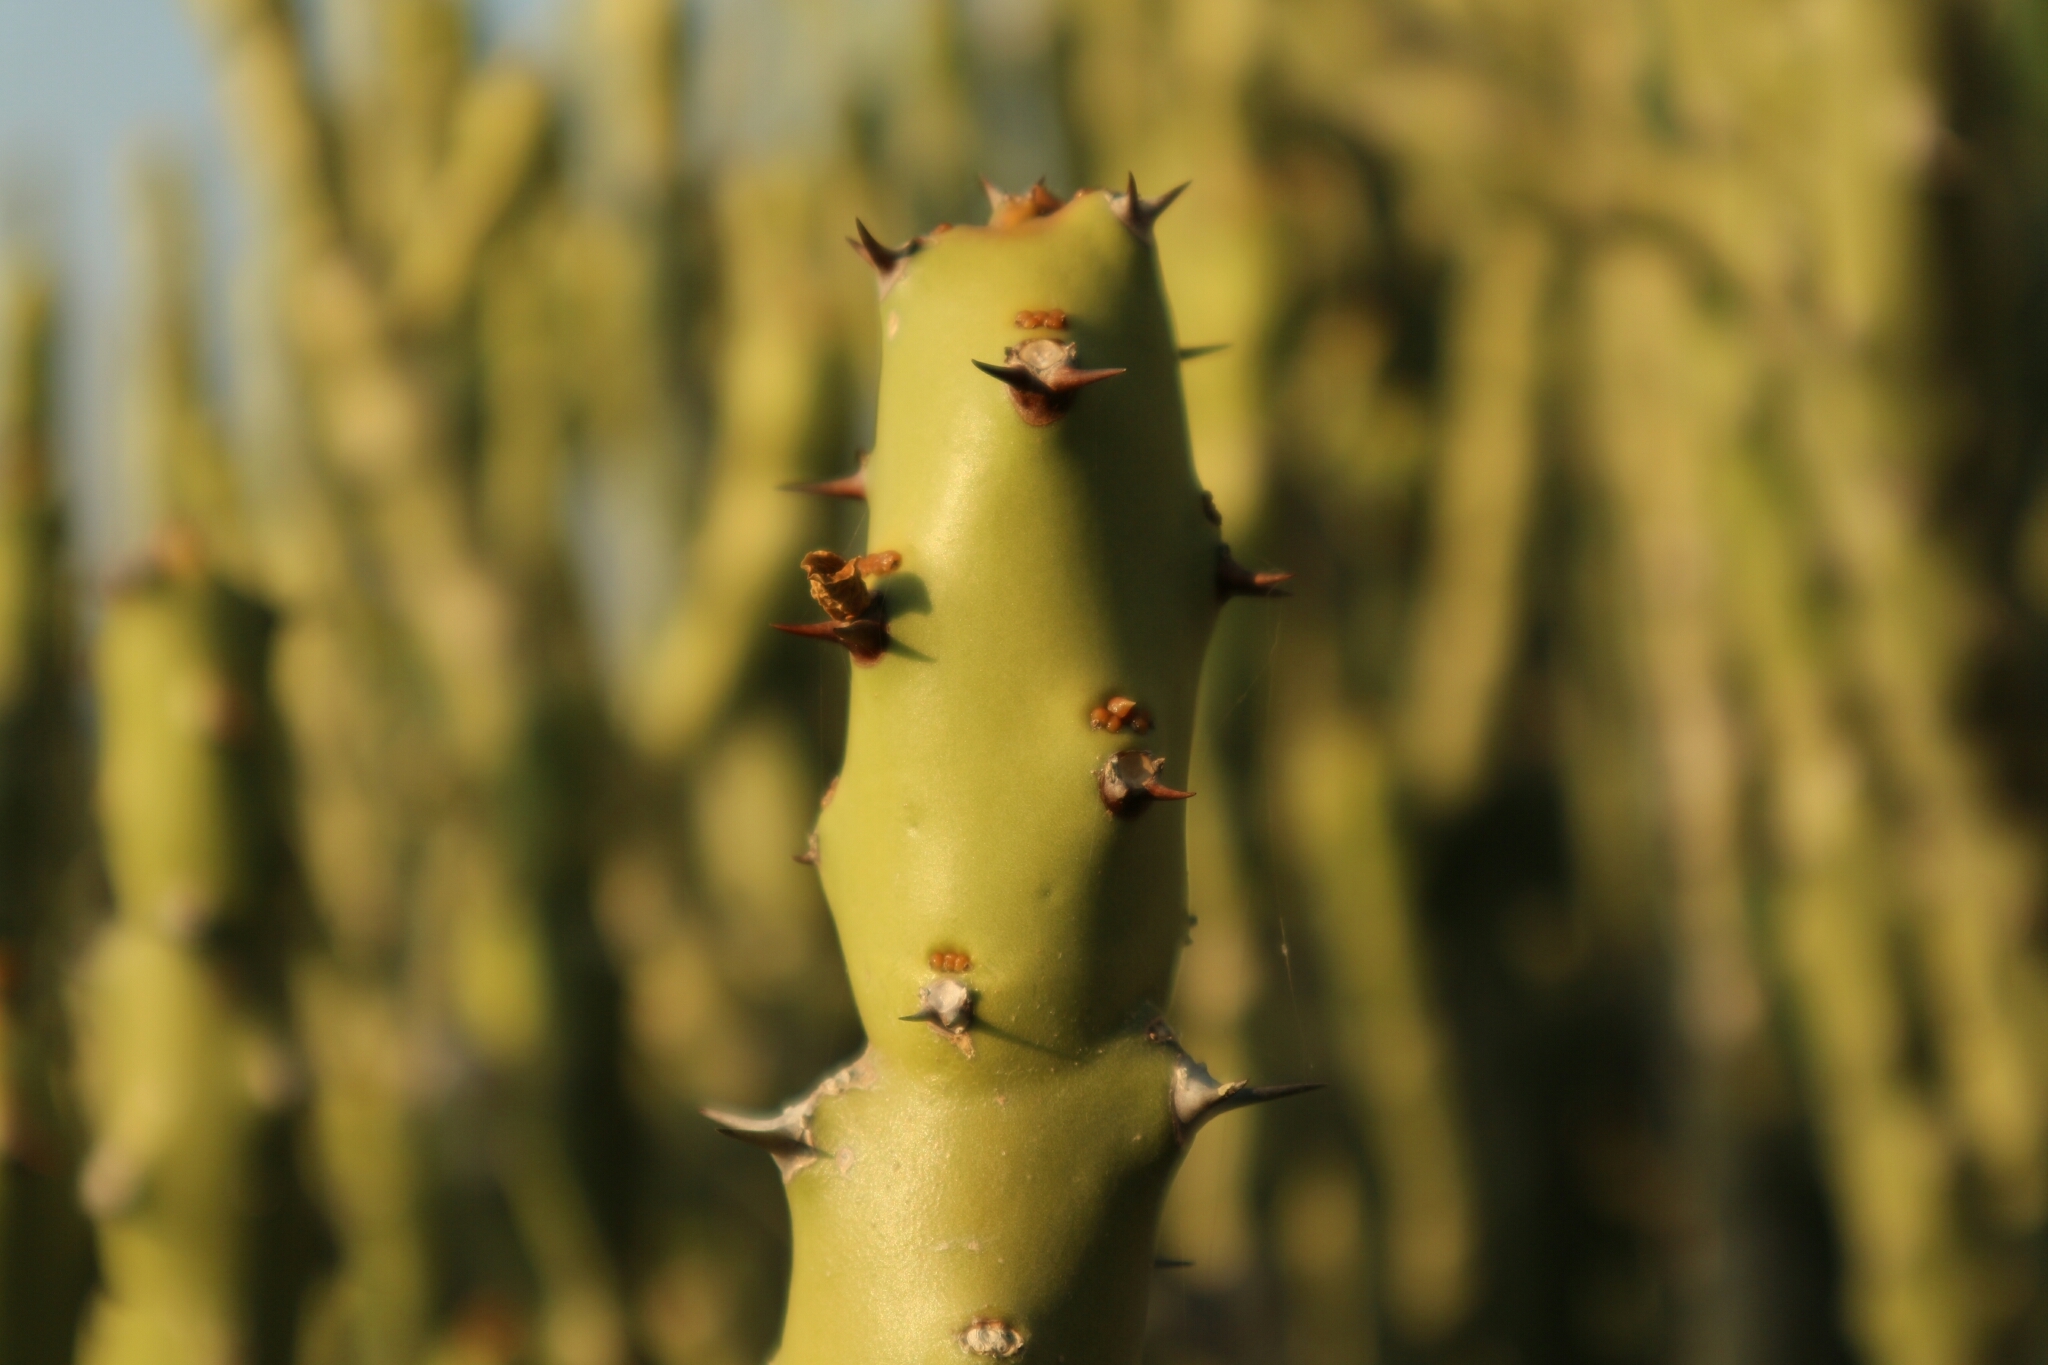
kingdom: Plantae
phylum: Tracheophyta
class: Magnoliopsida
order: Malpighiales
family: Euphorbiaceae
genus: Euphorbia
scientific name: Euphorbia caducifolia
